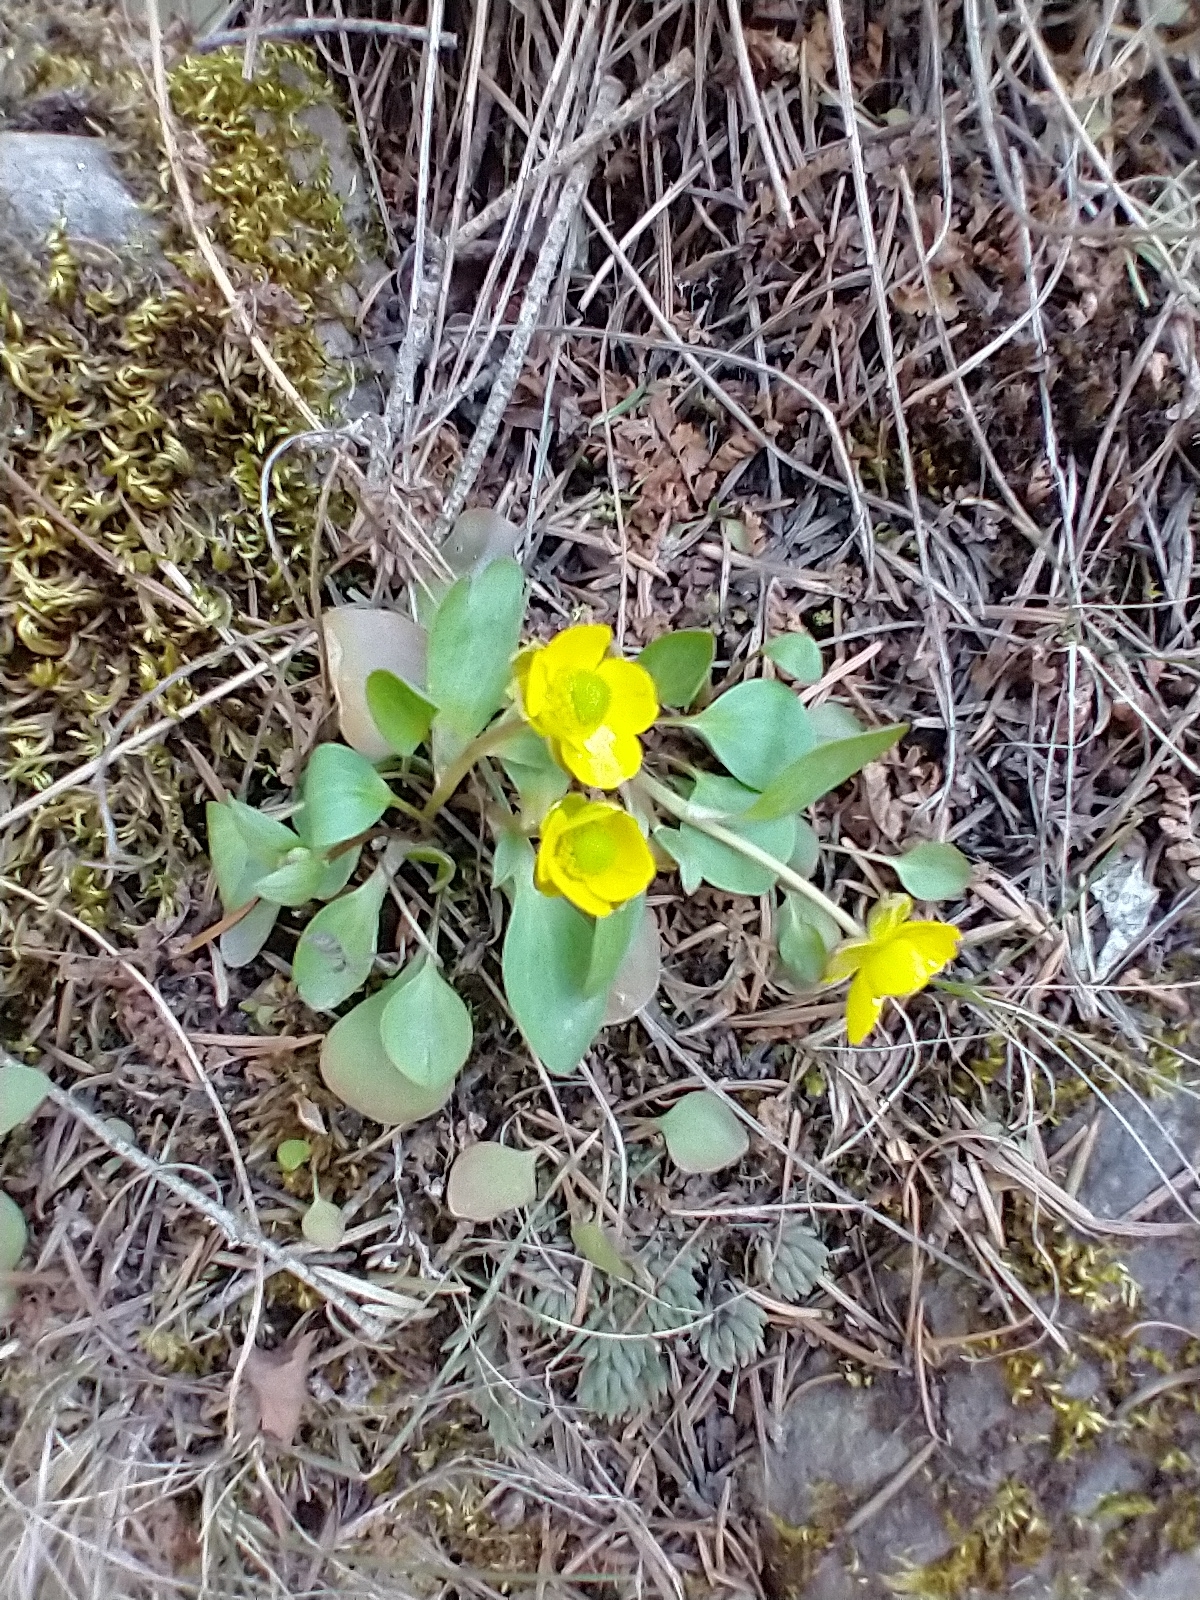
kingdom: Plantae
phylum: Tracheophyta
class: Magnoliopsida
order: Ranunculales
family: Ranunculaceae
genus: Ranunculus
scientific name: Ranunculus glaberrimus
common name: Sagebrush buttercup
